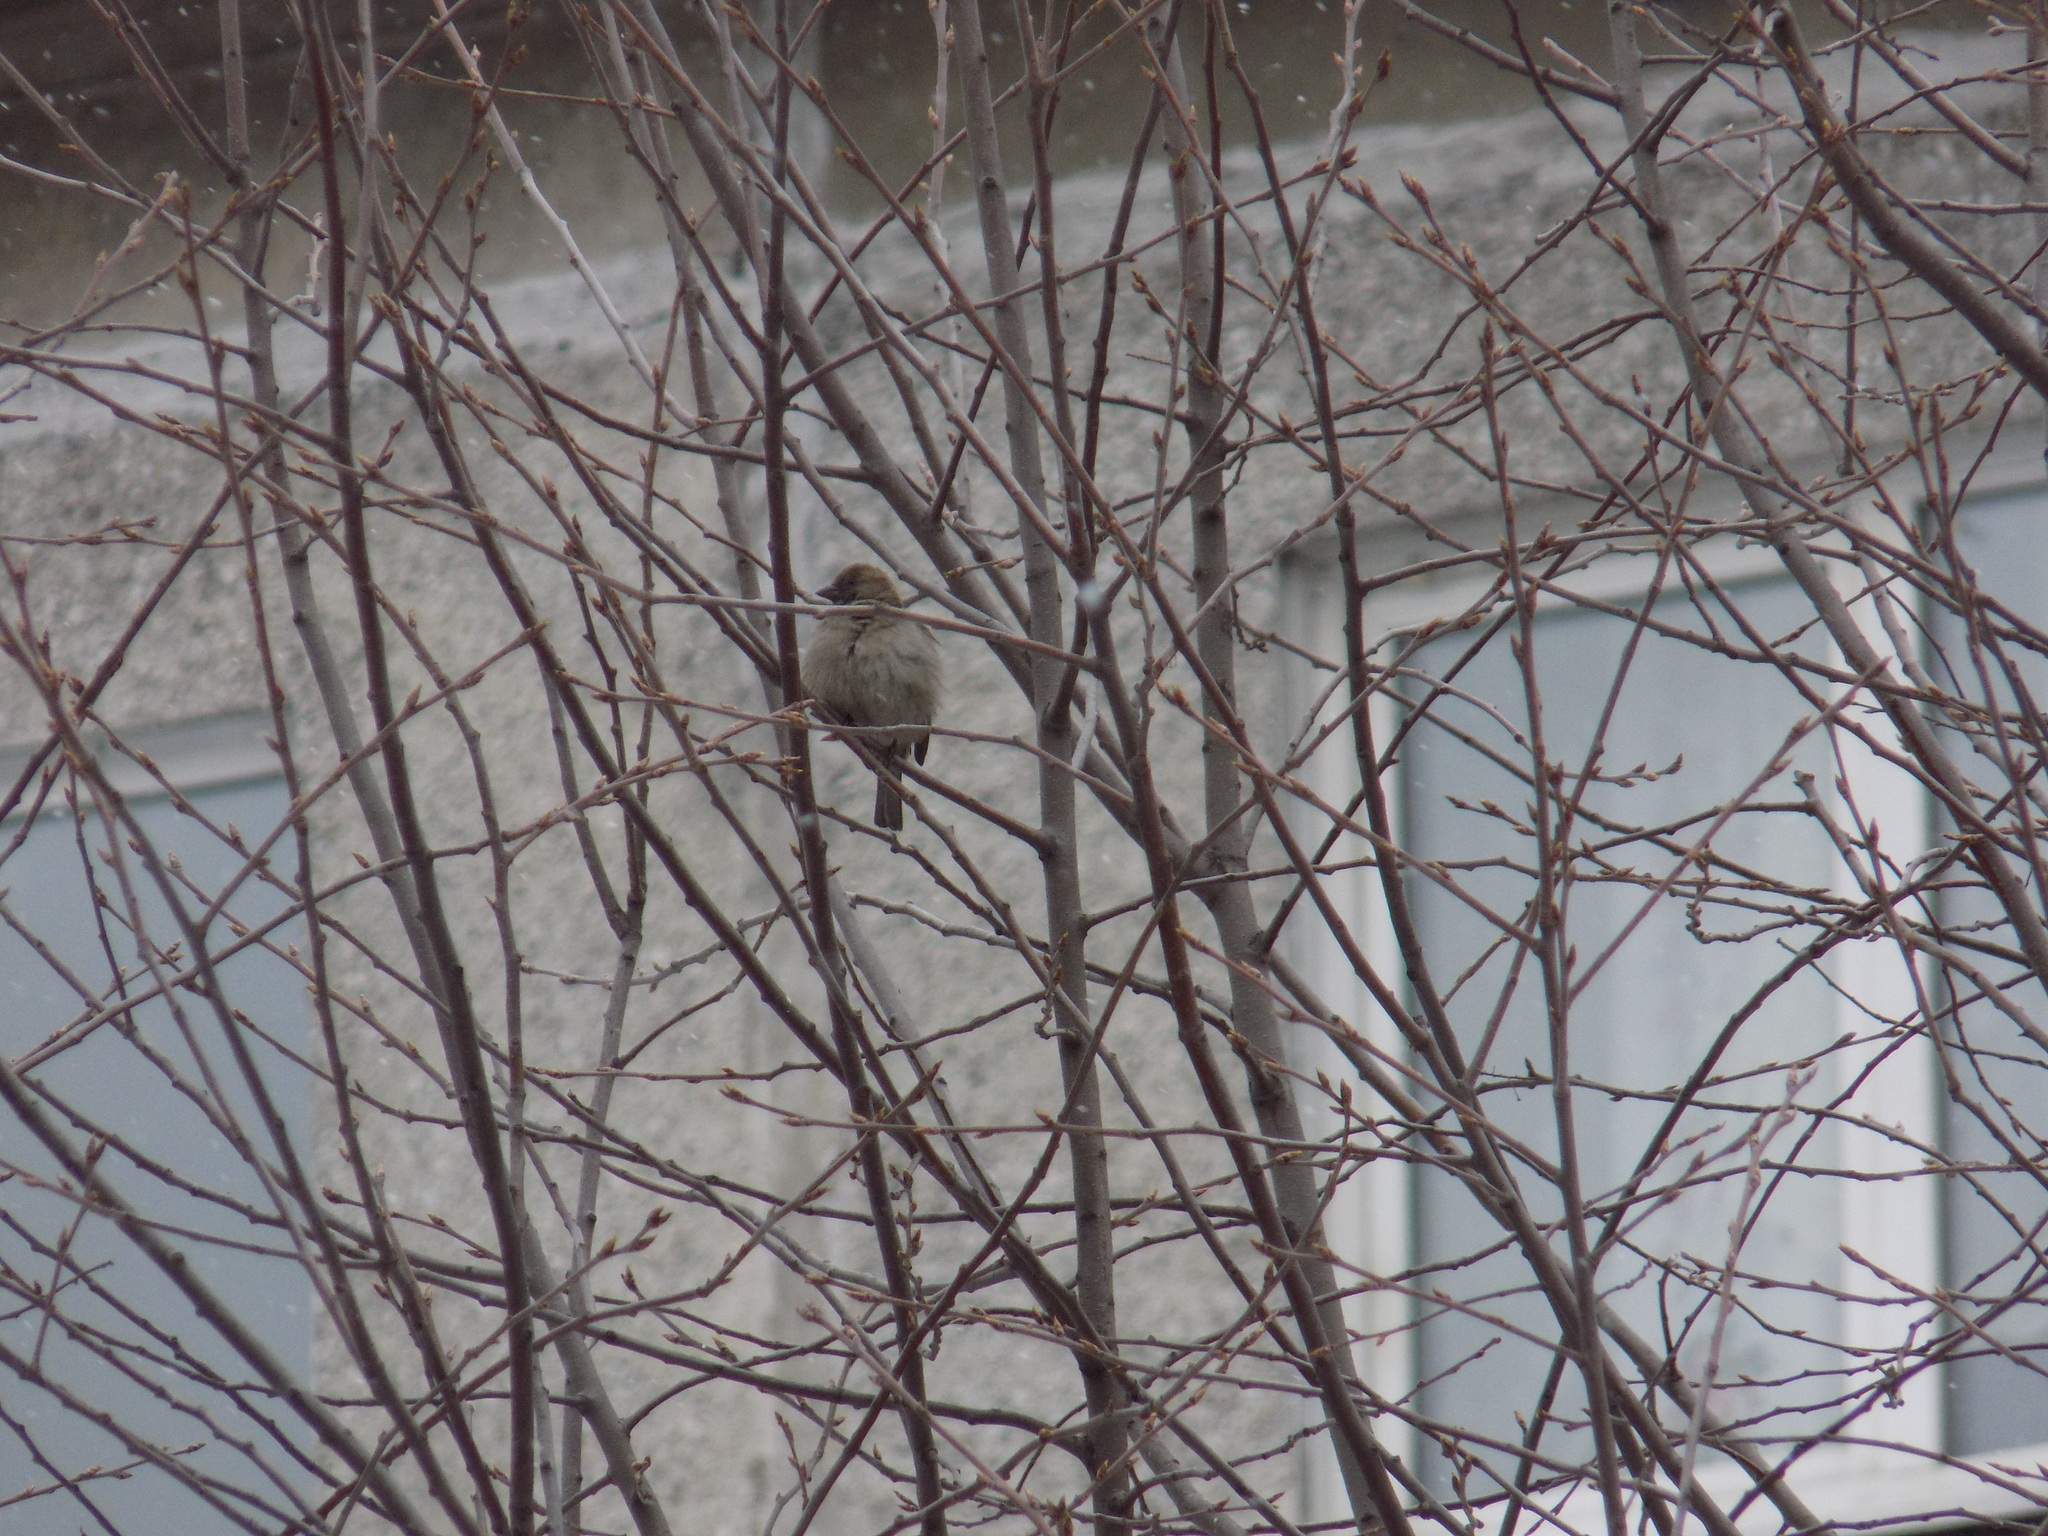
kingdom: Animalia
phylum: Chordata
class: Aves
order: Passeriformes
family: Passeridae
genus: Passer
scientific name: Passer domesticus
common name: House sparrow
